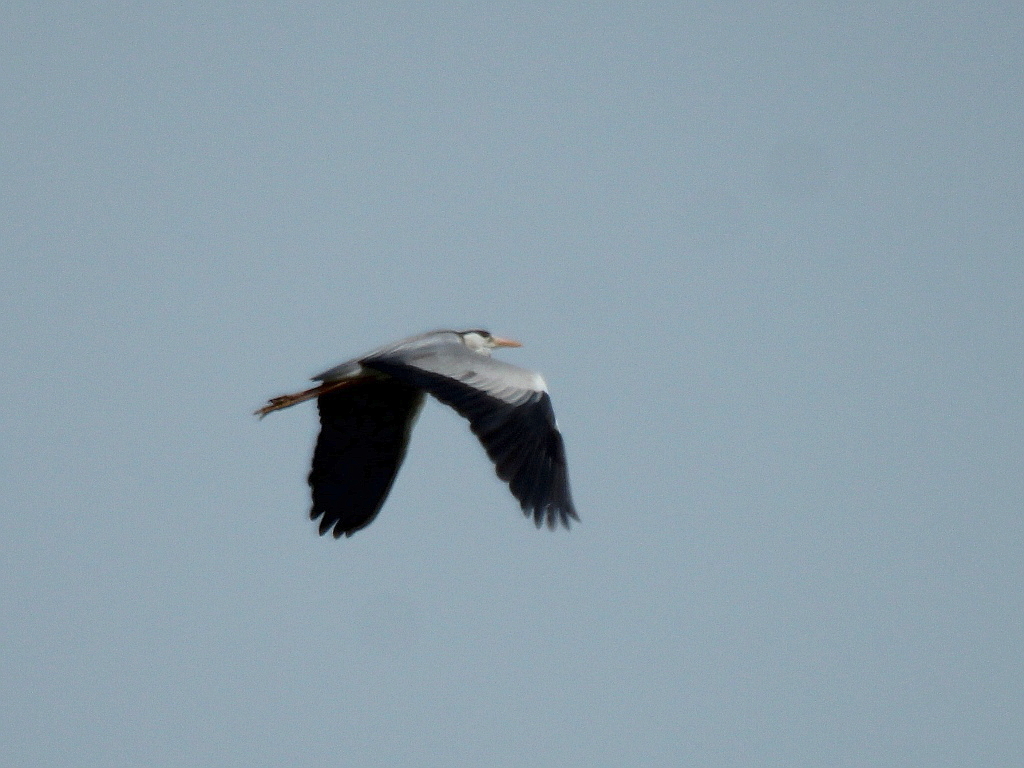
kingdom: Animalia
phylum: Chordata
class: Aves
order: Pelecaniformes
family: Ardeidae
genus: Ardea
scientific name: Ardea cinerea
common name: Grey heron
